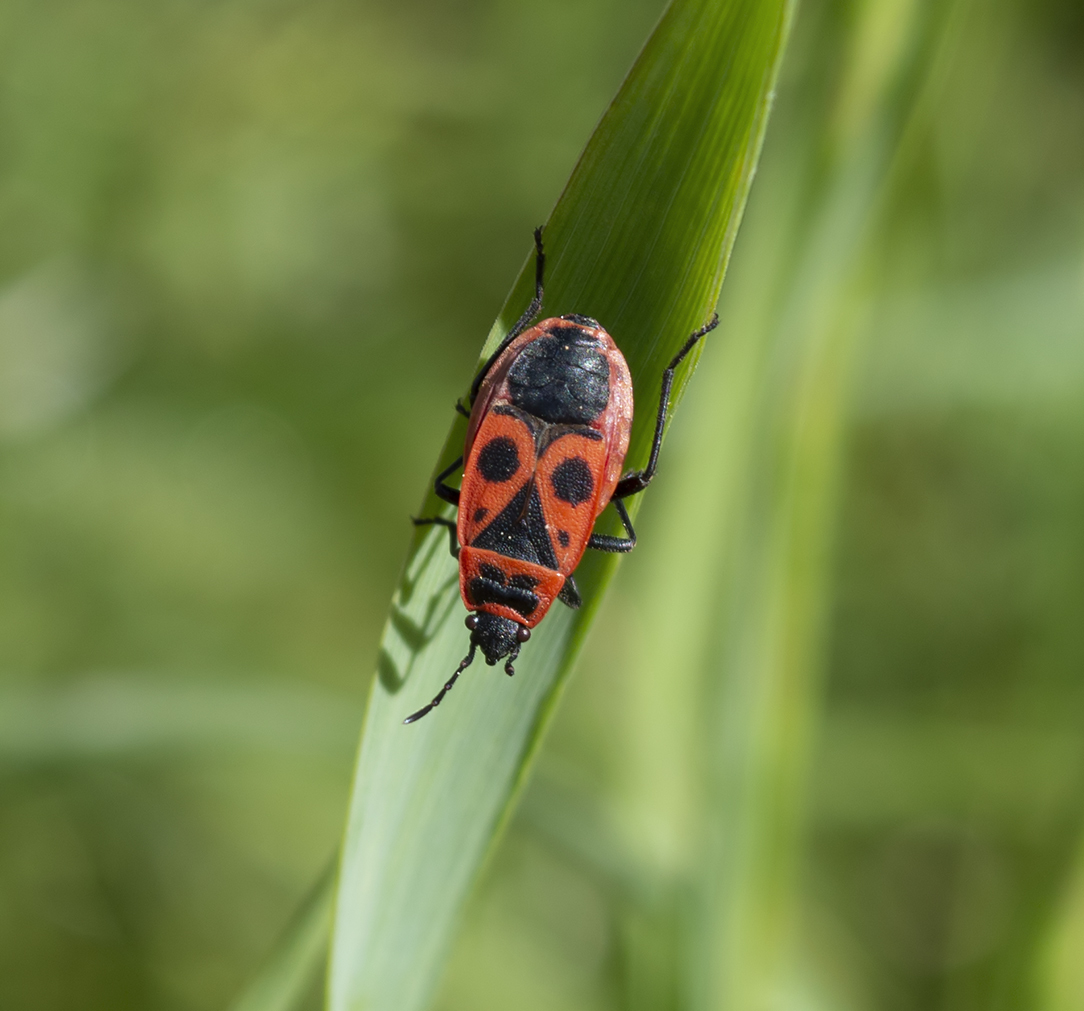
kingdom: Animalia
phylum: Arthropoda
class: Insecta
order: Hemiptera
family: Pyrrhocoridae
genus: Pyrrhocoris
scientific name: Pyrrhocoris apterus
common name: Firebug
